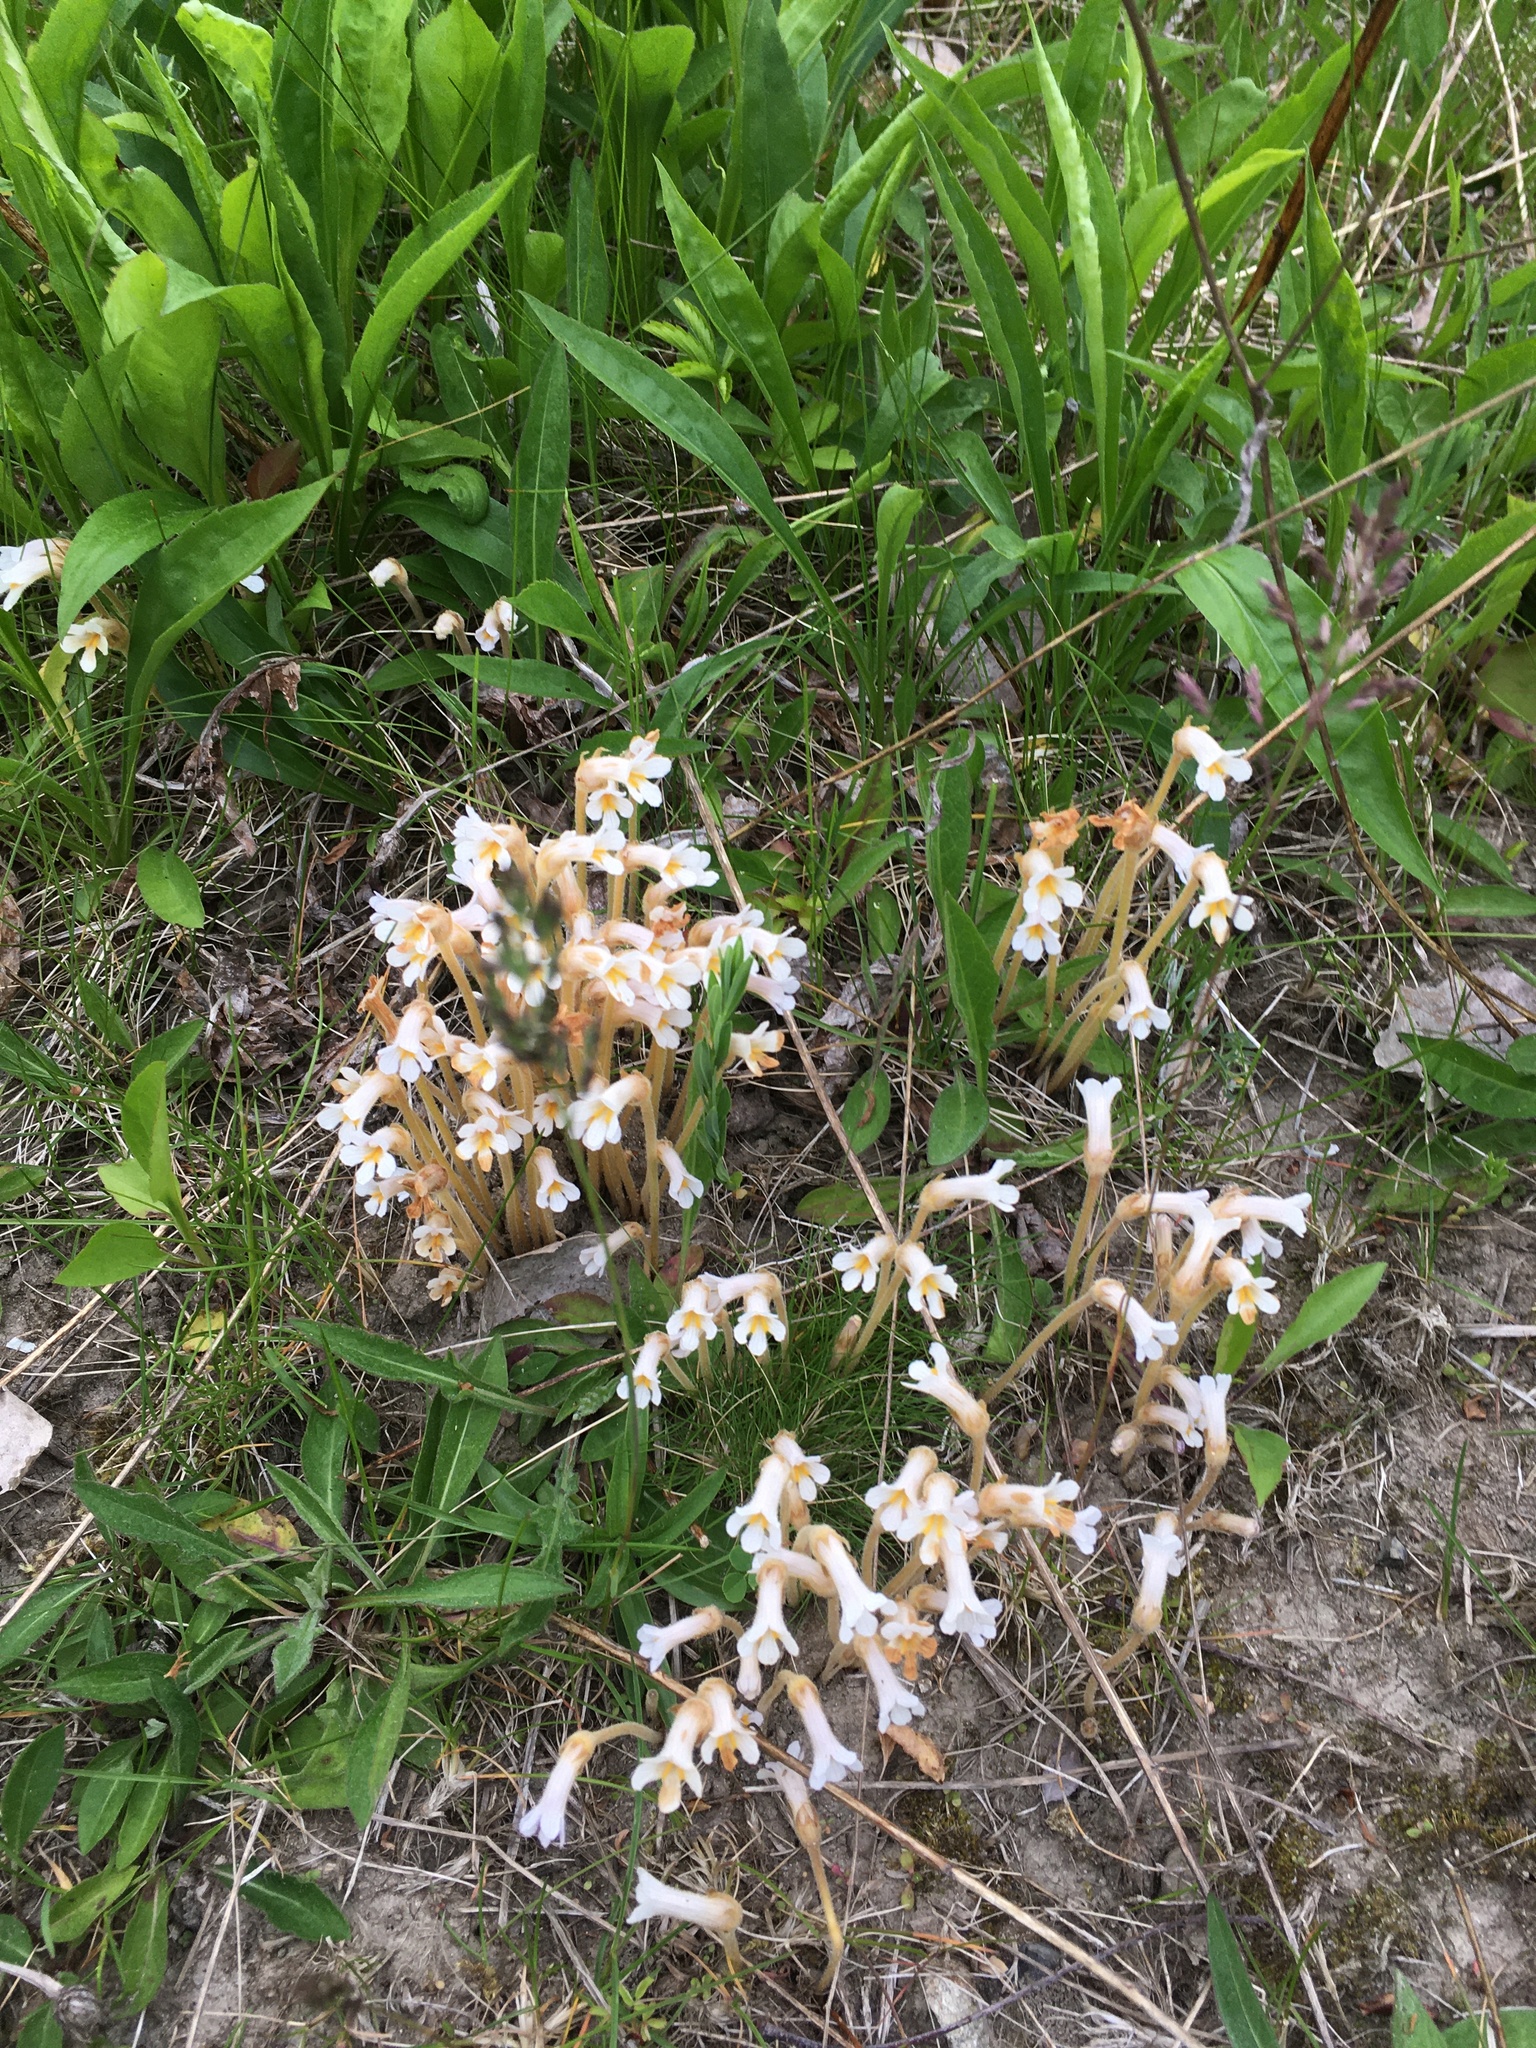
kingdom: Plantae
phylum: Tracheophyta
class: Magnoliopsida
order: Lamiales
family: Orobanchaceae
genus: Aphyllon
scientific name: Aphyllon uniflorum
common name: One-flowered broomrape
